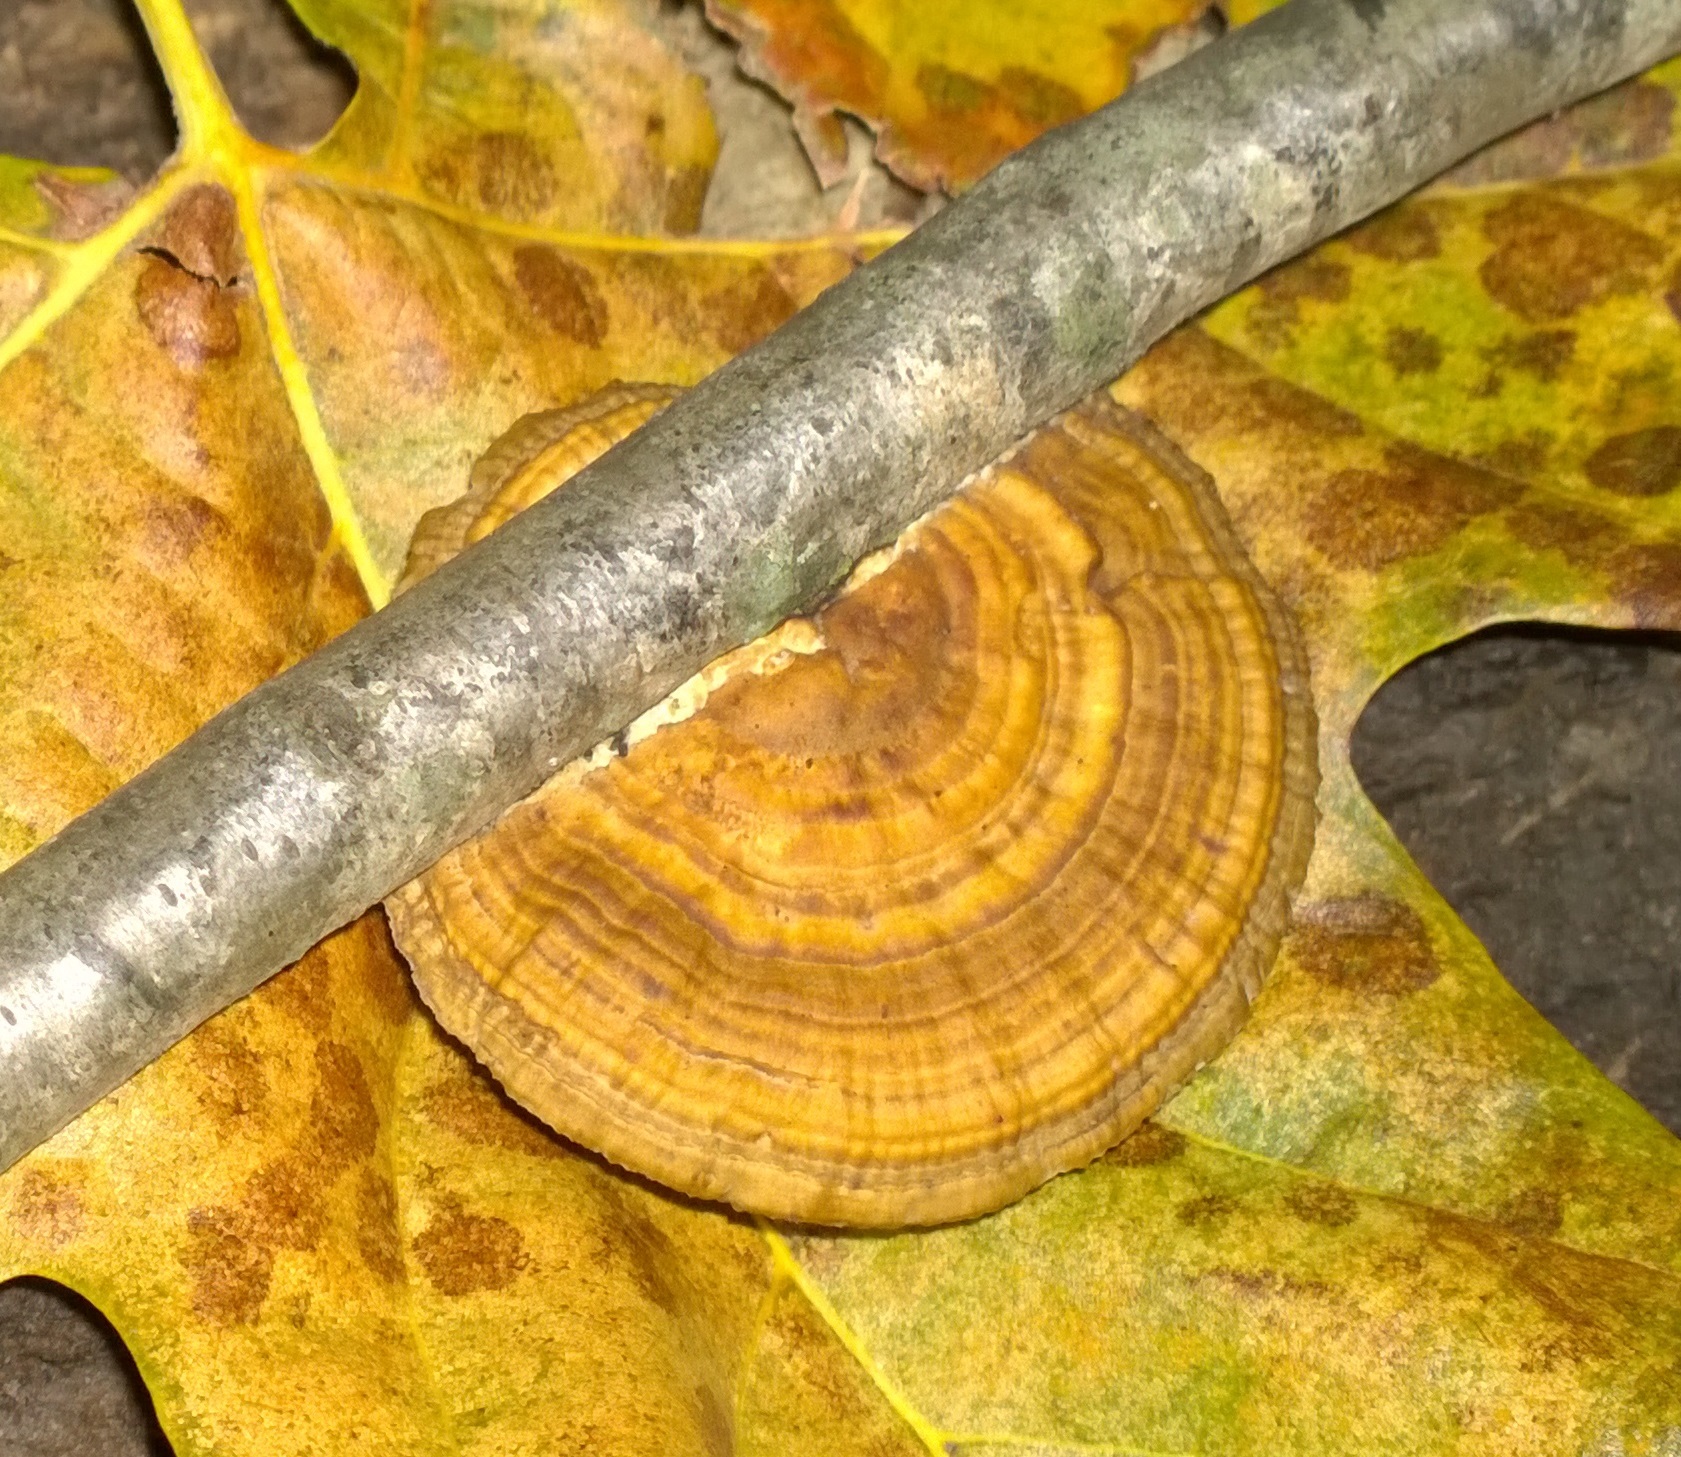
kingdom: Fungi
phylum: Basidiomycota
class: Agaricomycetes
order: Polyporales
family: Polyporaceae
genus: Daedaleopsis
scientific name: Daedaleopsis confragosa
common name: Blushing bracket
